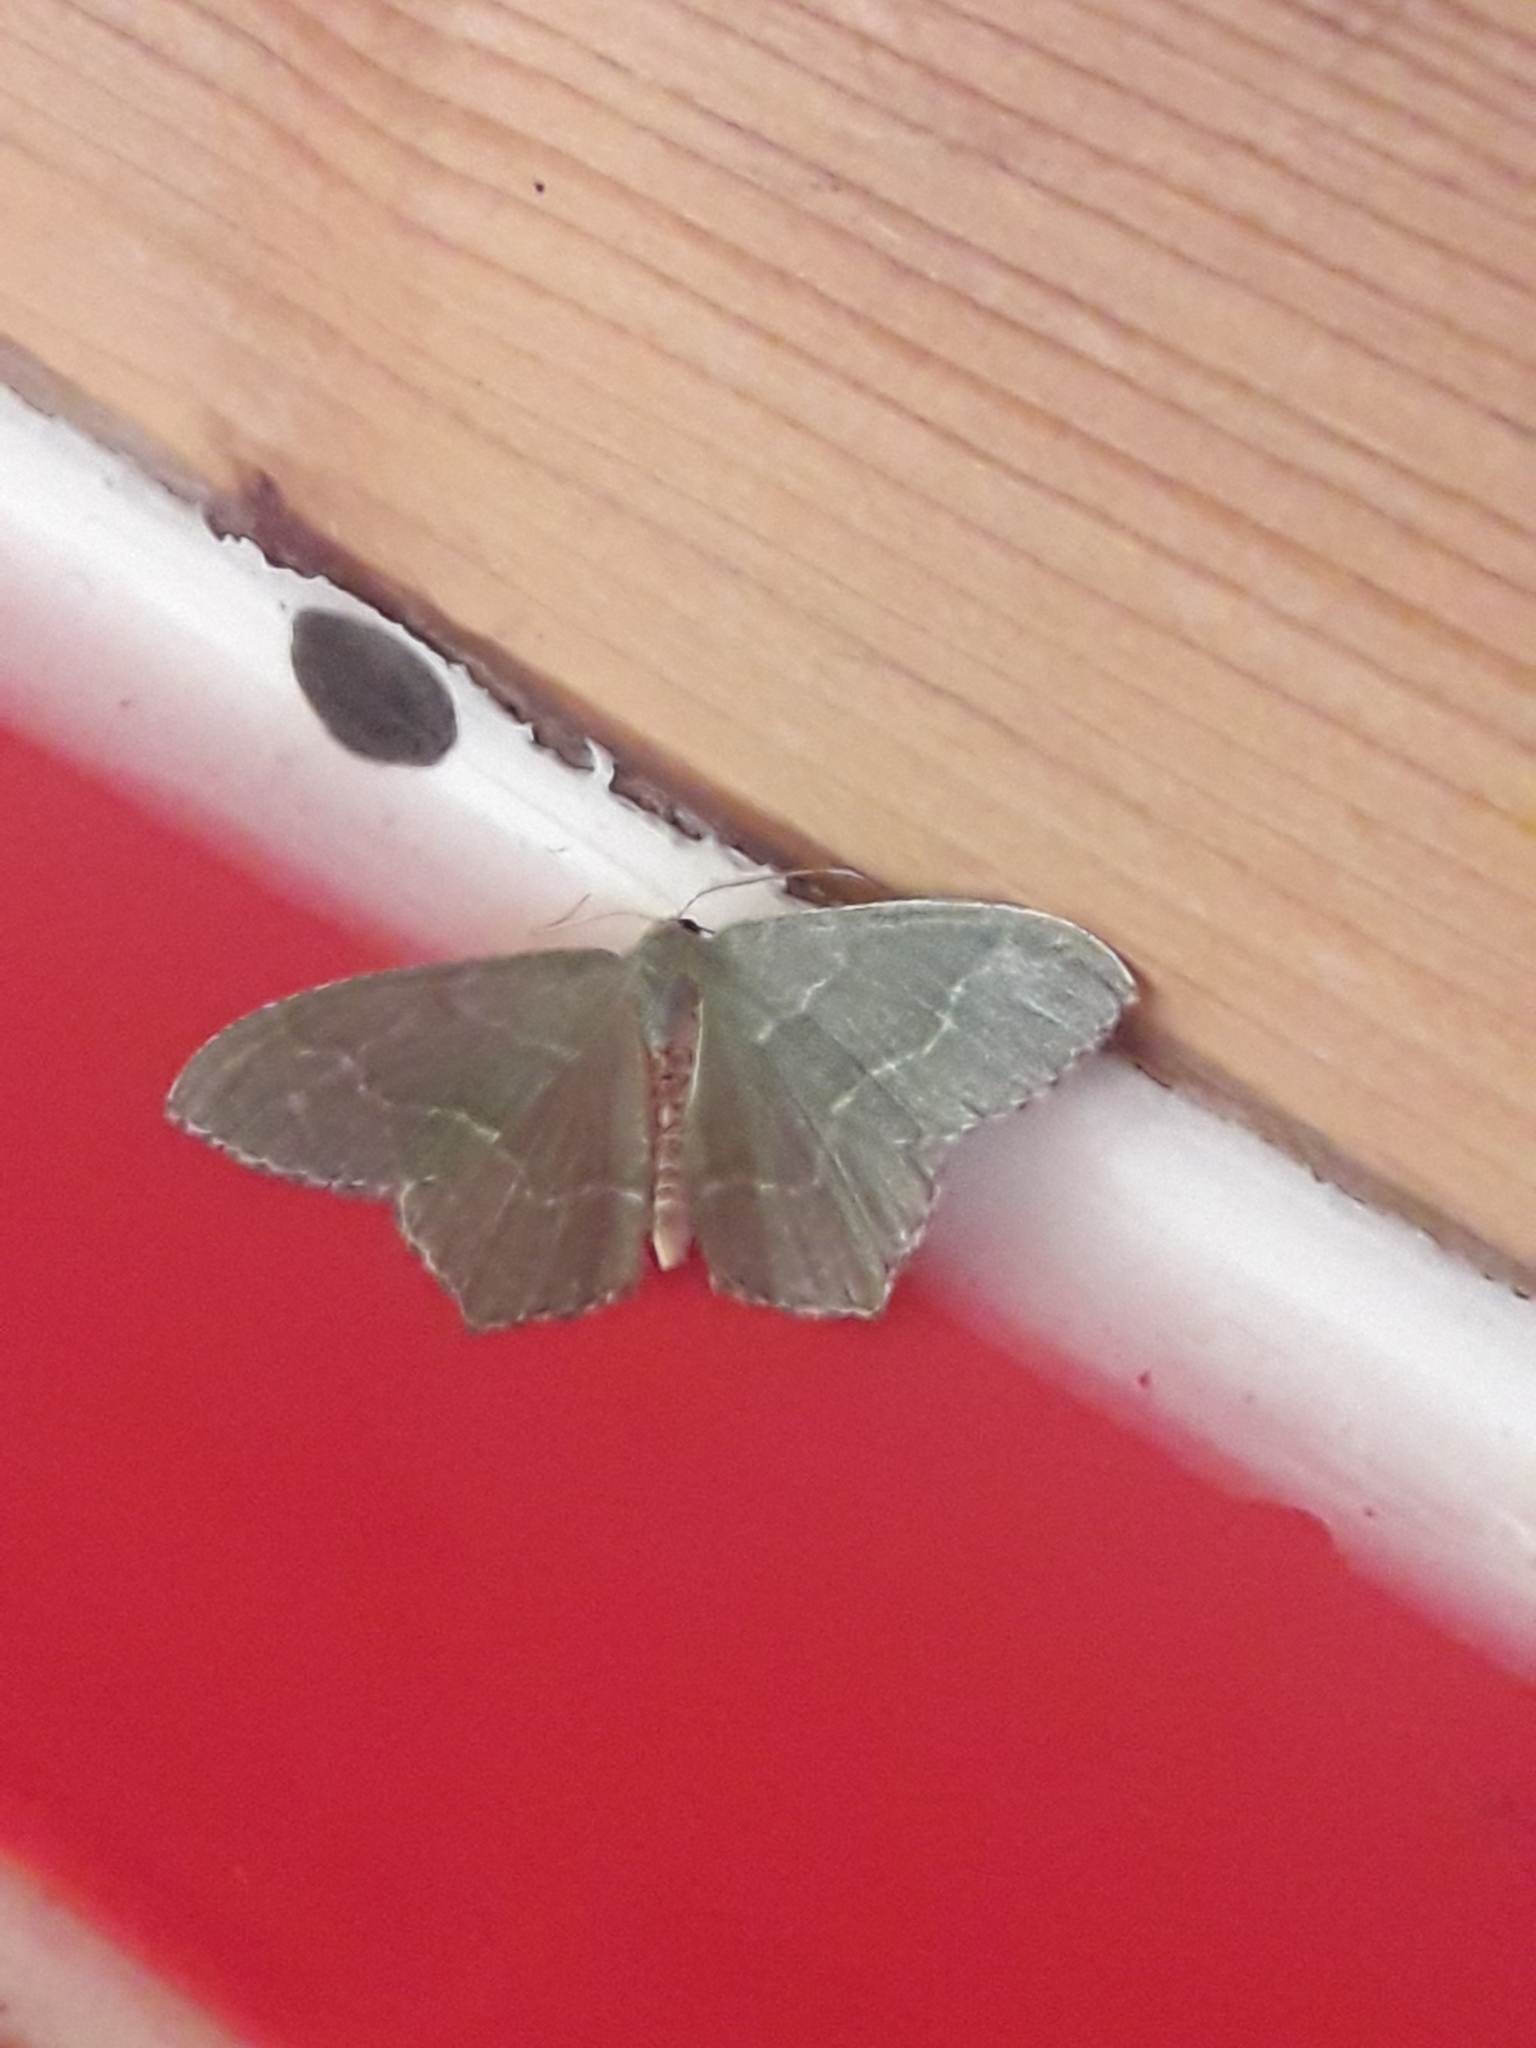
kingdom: Animalia
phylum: Arthropoda
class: Insecta
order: Lepidoptera
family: Geometridae
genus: Hemithea
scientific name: Hemithea aestivaria
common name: Common emerald
